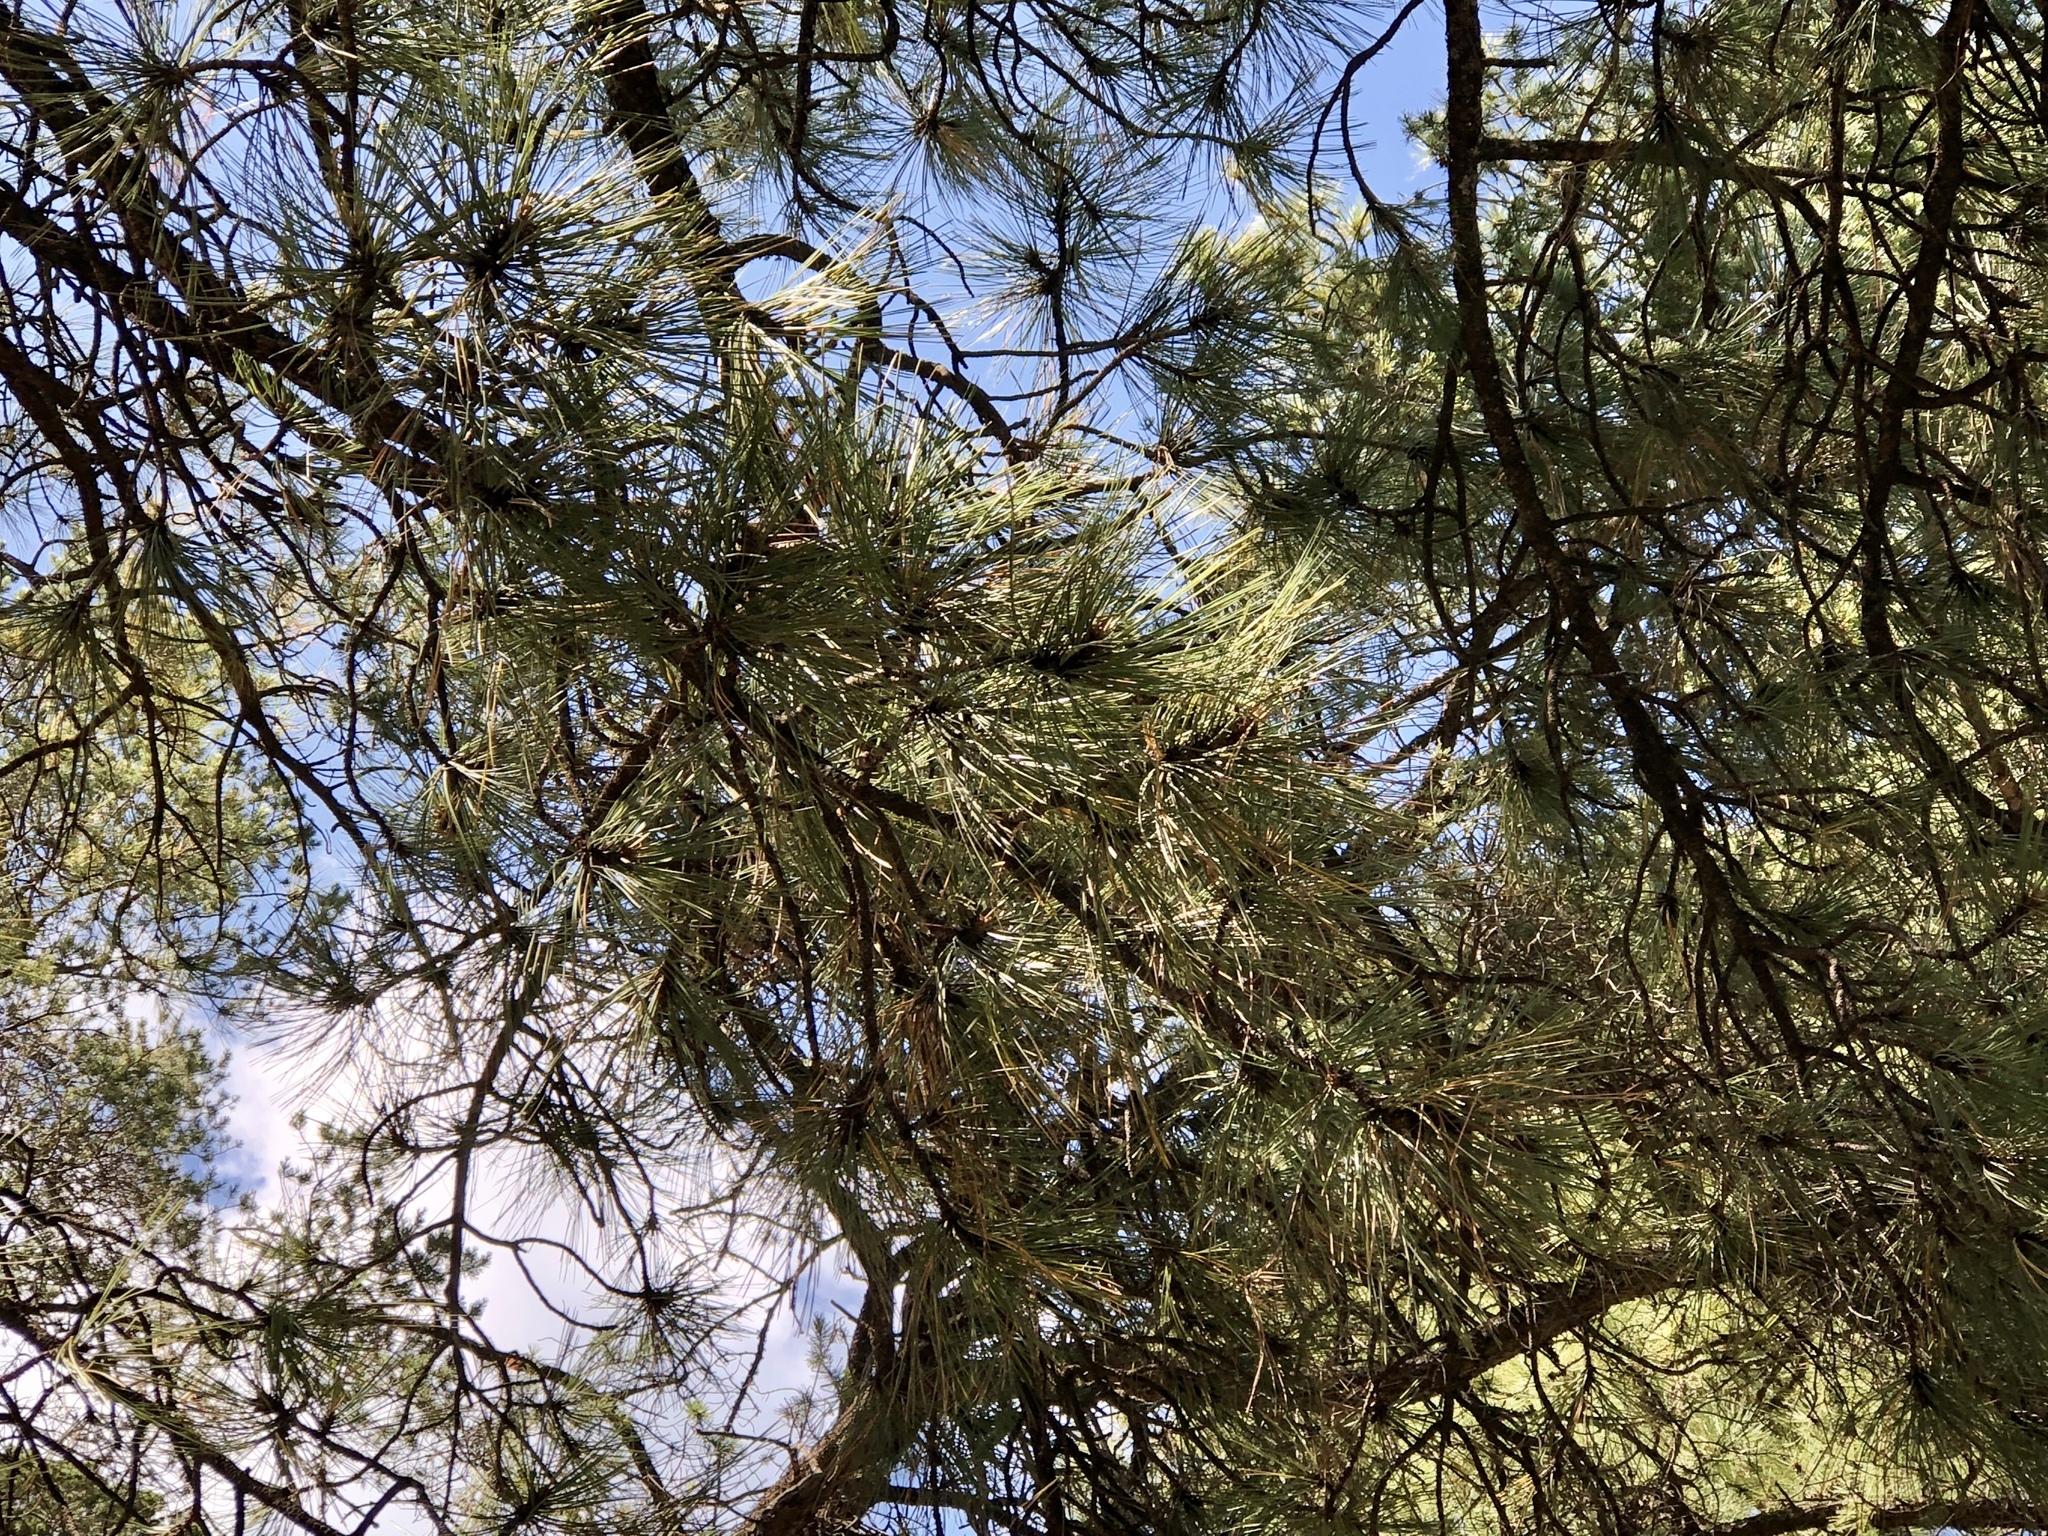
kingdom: Plantae
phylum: Tracheophyta
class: Pinopsida
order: Pinales
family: Pinaceae
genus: Pinus
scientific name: Pinus ponderosa
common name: Western yellow-pine
